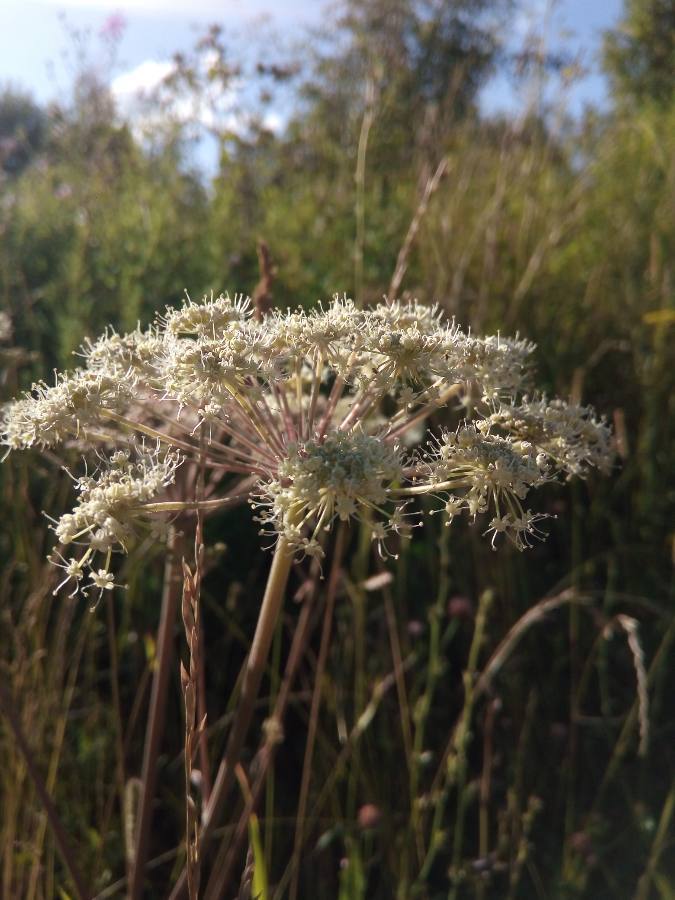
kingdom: Plantae
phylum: Tracheophyta
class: Magnoliopsida
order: Apiales
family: Apiaceae
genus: Angelica
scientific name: Angelica sylvestris
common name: Wild angelica
